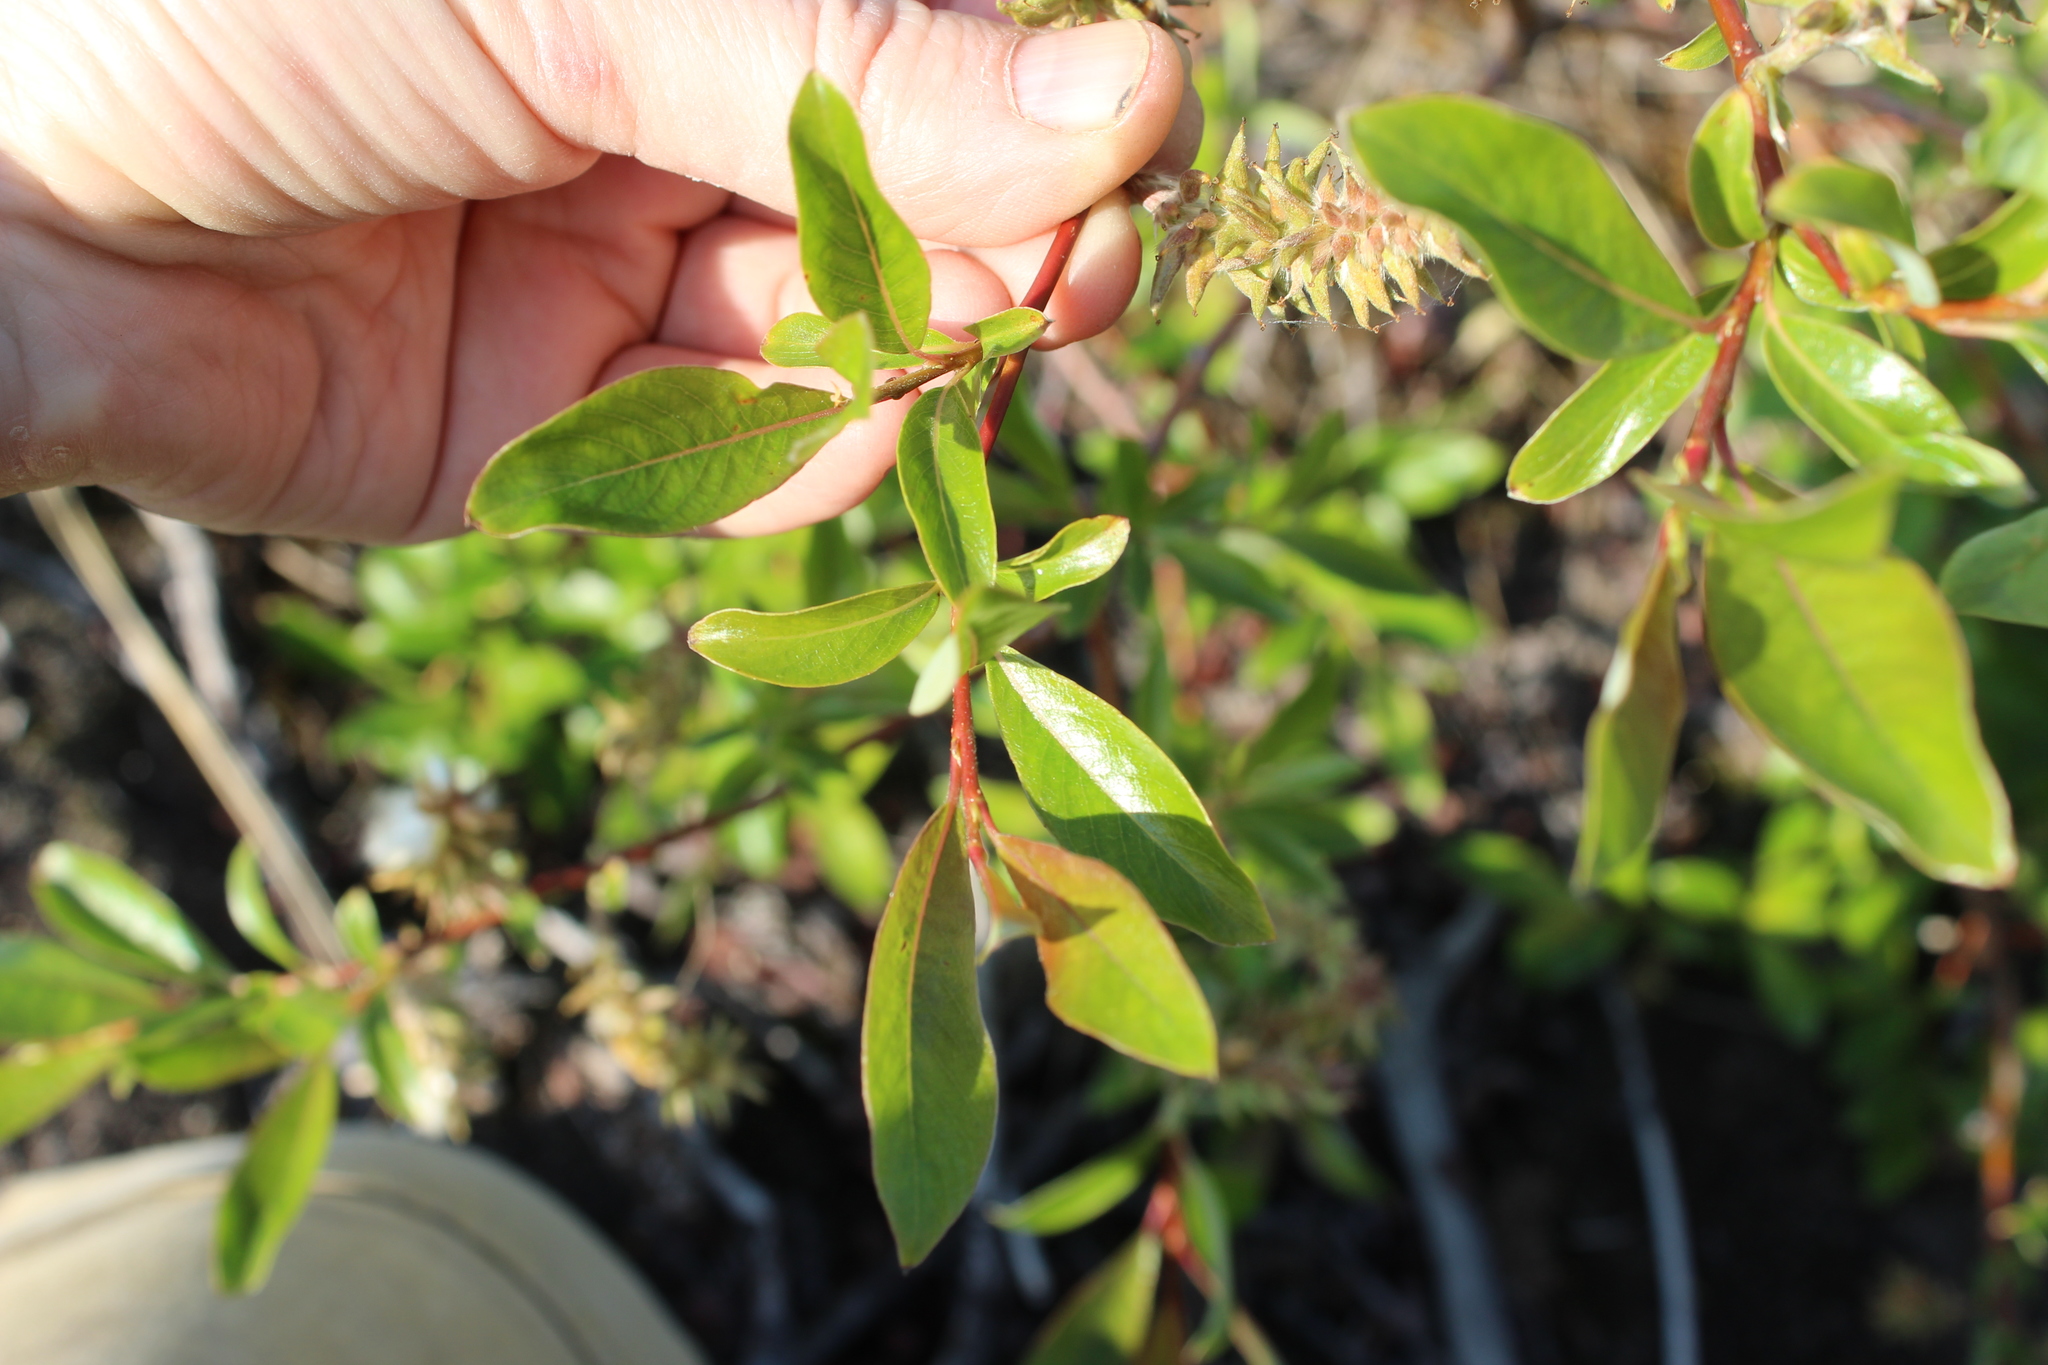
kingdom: Plantae
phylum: Tracheophyta
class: Magnoliopsida
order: Malpighiales
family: Salicaceae
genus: Salix
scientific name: Salix pulchra
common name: Diamond-leaved willow
